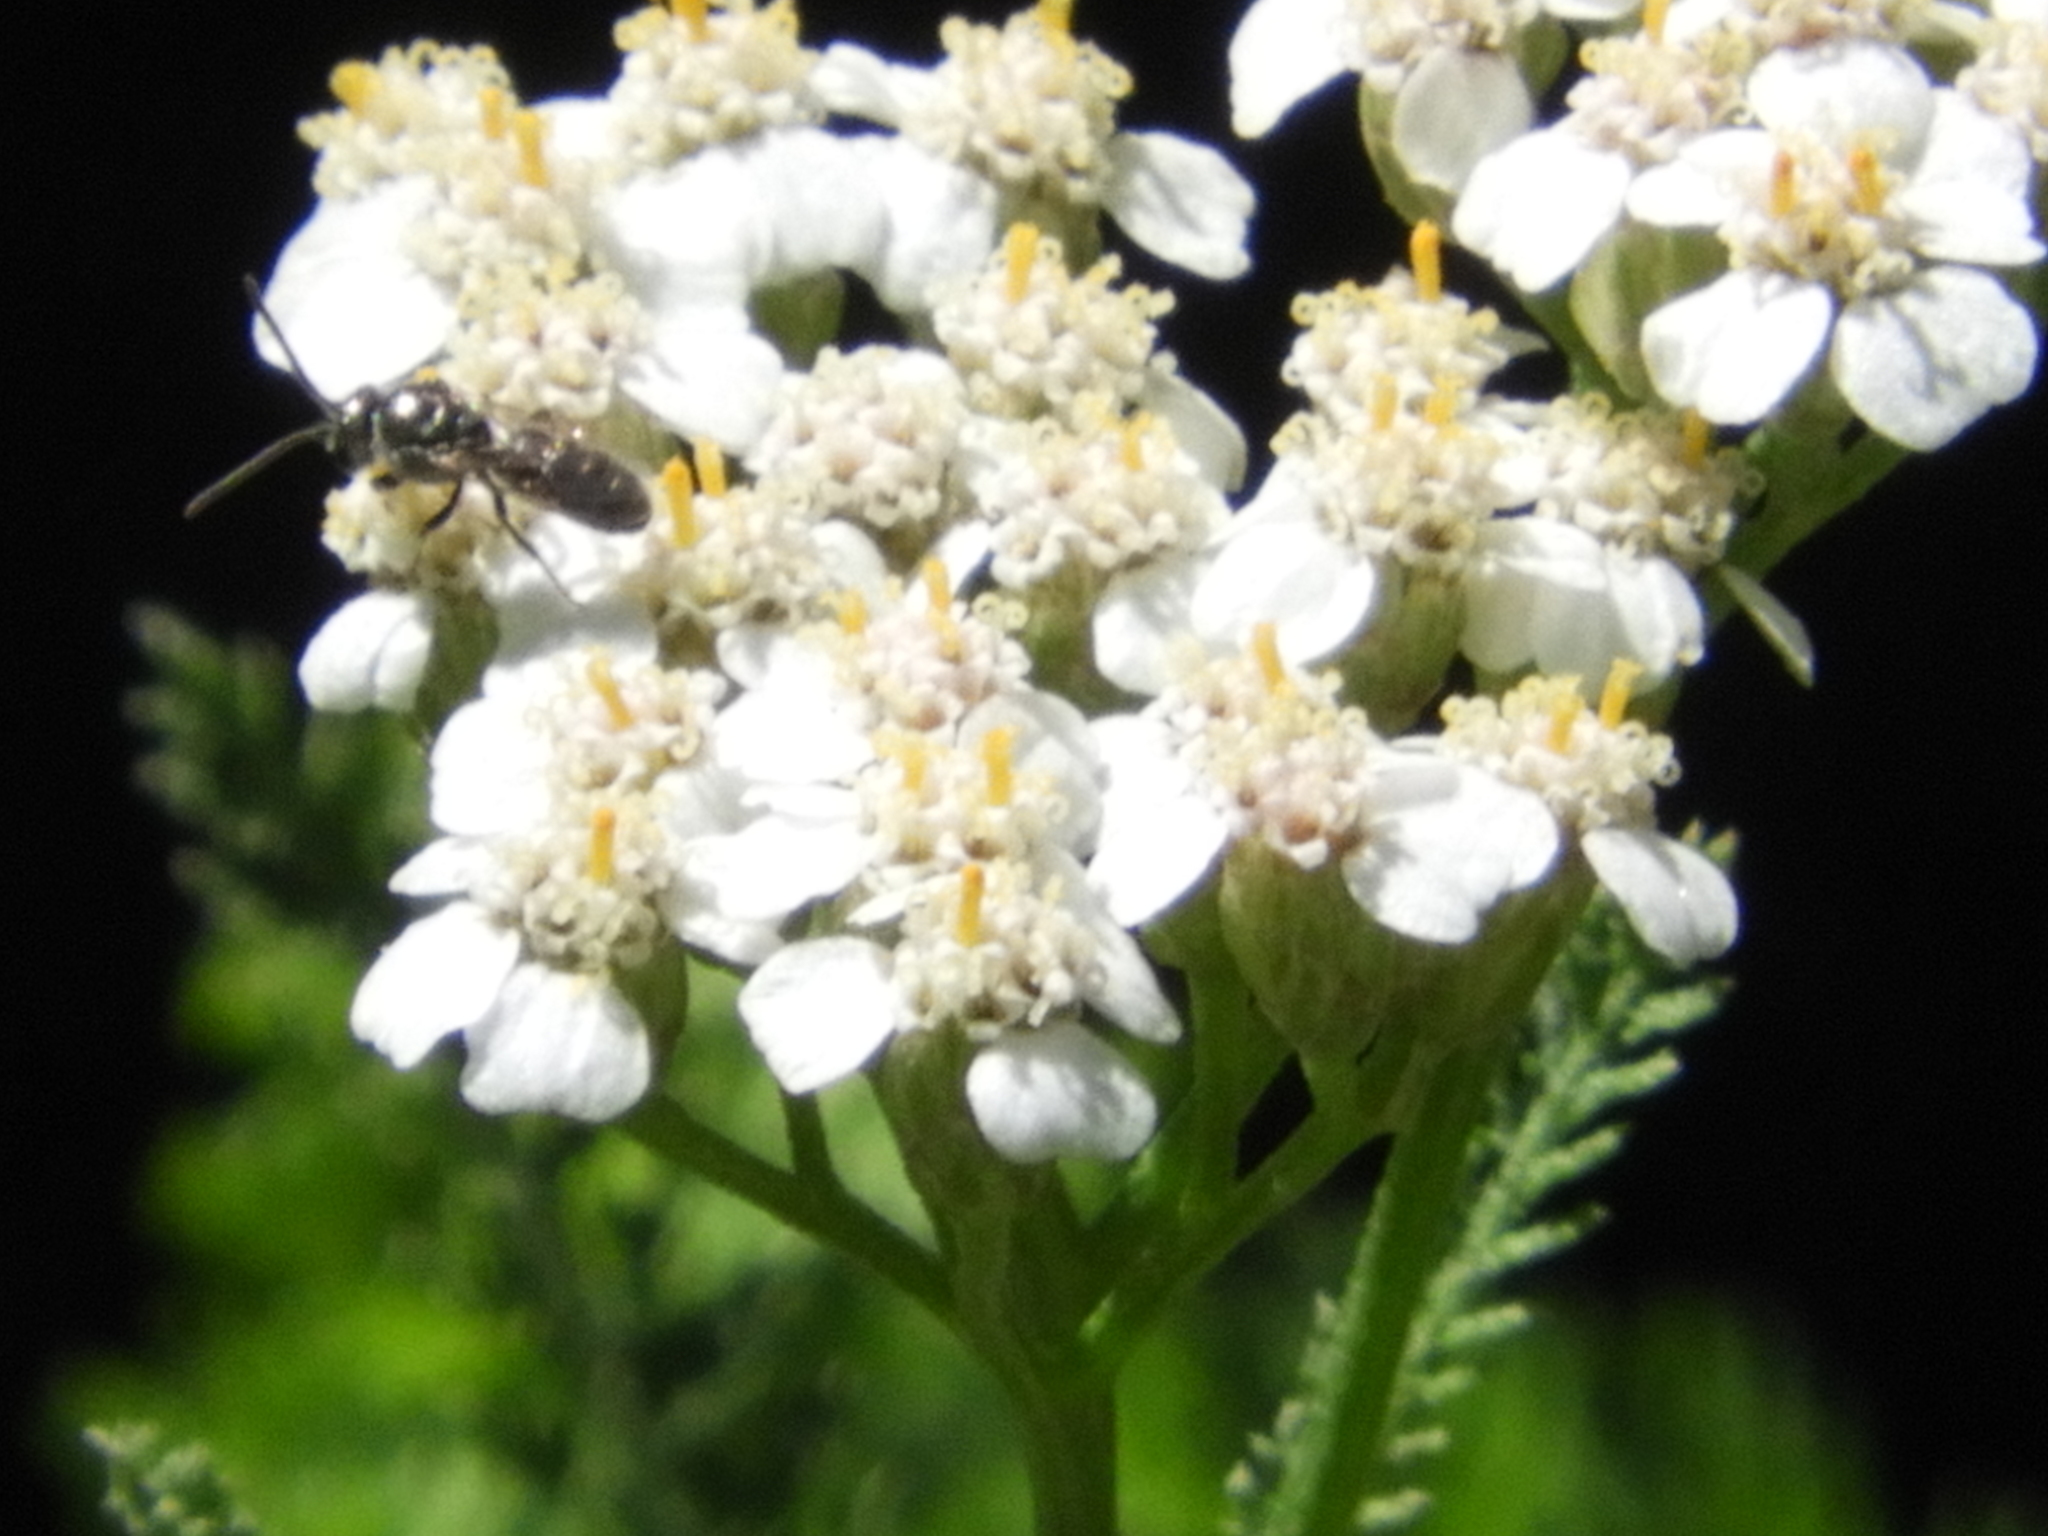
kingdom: Animalia
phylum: Arthropoda
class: Insecta
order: Hymenoptera
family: Halictidae
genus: Dialictus
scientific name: Dialictus
